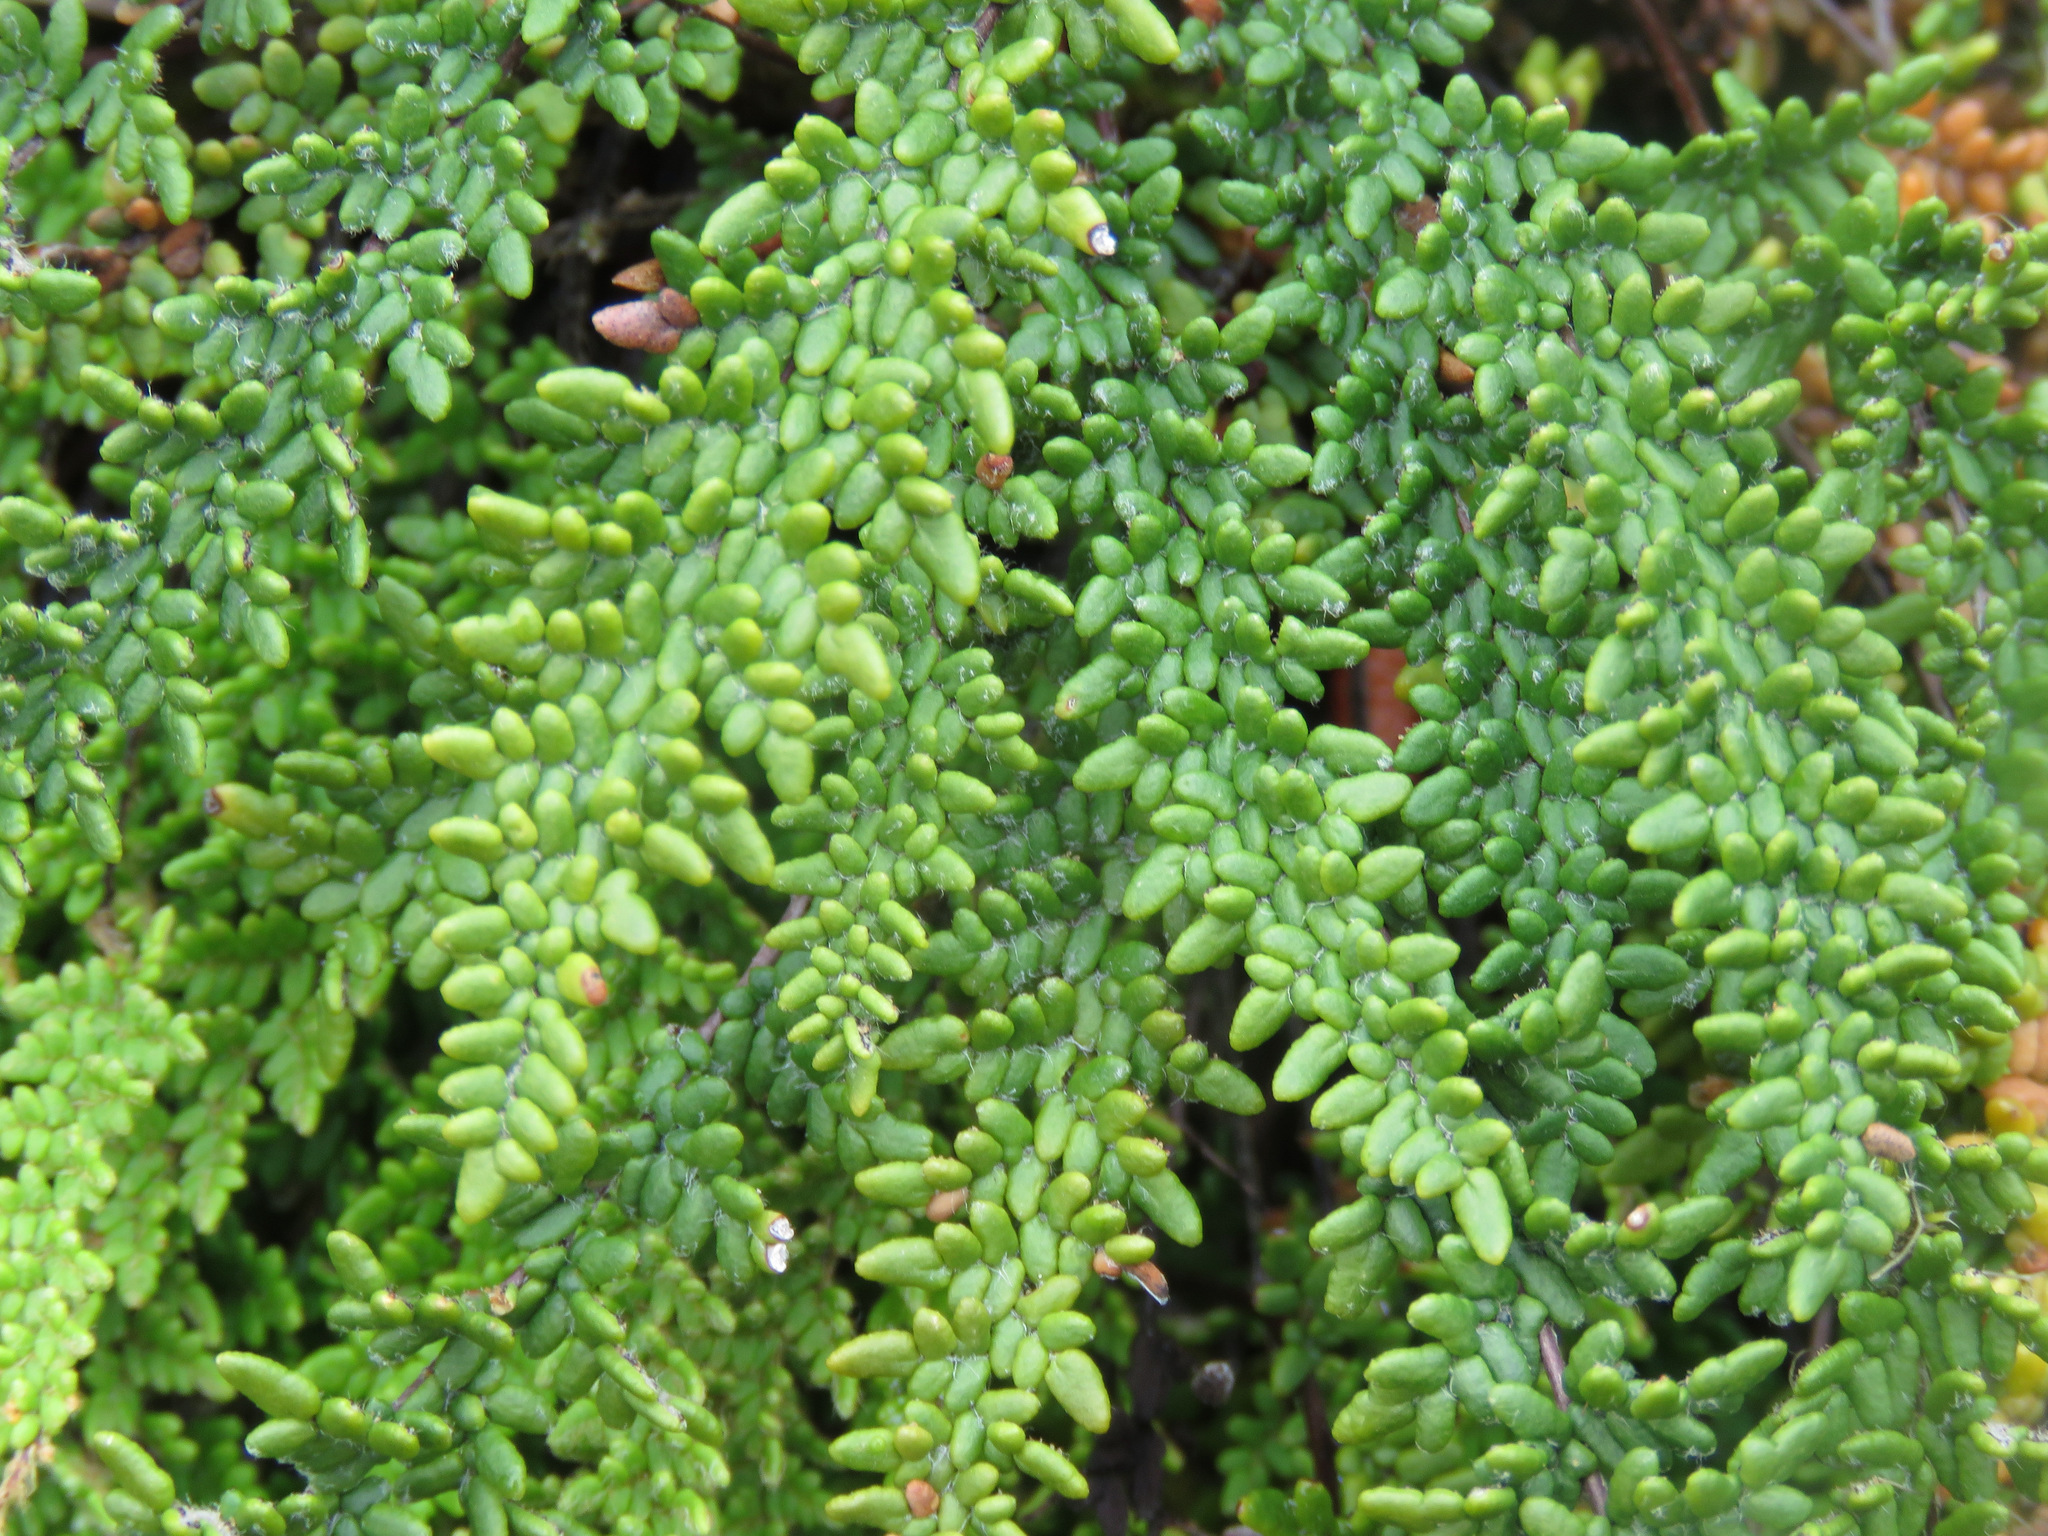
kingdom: Plantae
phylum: Tracheophyta
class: Polypodiopsida
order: Polypodiales
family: Pteridaceae
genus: Myriopteris
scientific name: Myriopteris gracillima
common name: Lace fern
